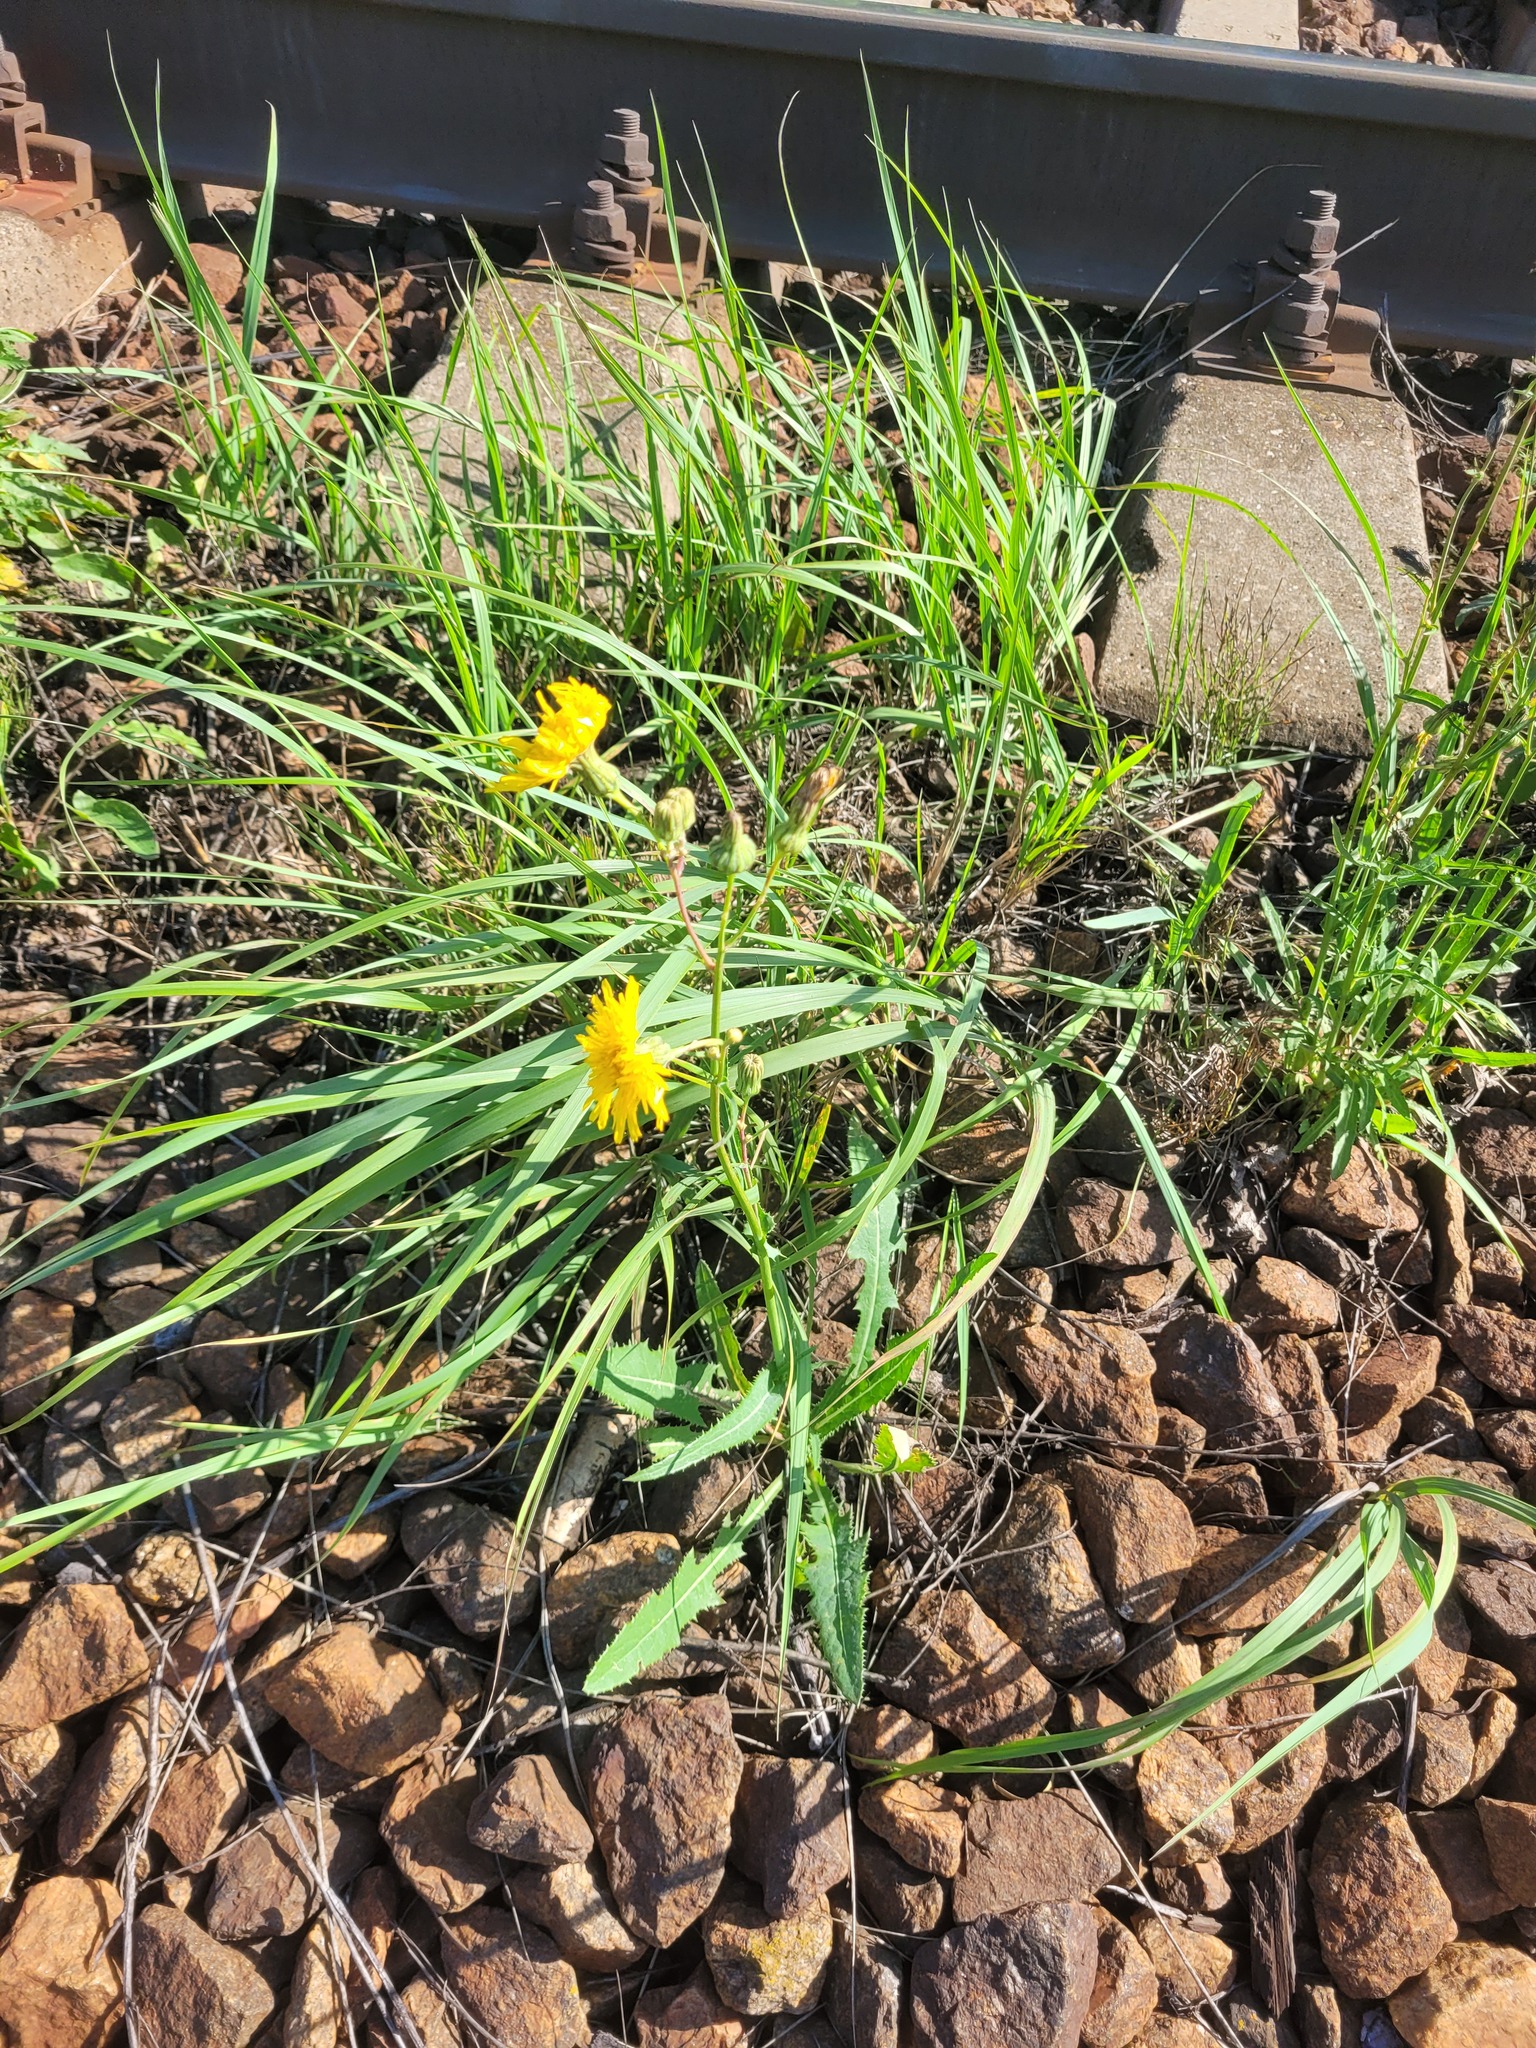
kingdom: Plantae
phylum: Tracheophyta
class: Magnoliopsida
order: Asterales
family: Asteraceae
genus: Sonchus
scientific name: Sonchus arvensis
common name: Perennial sow-thistle
